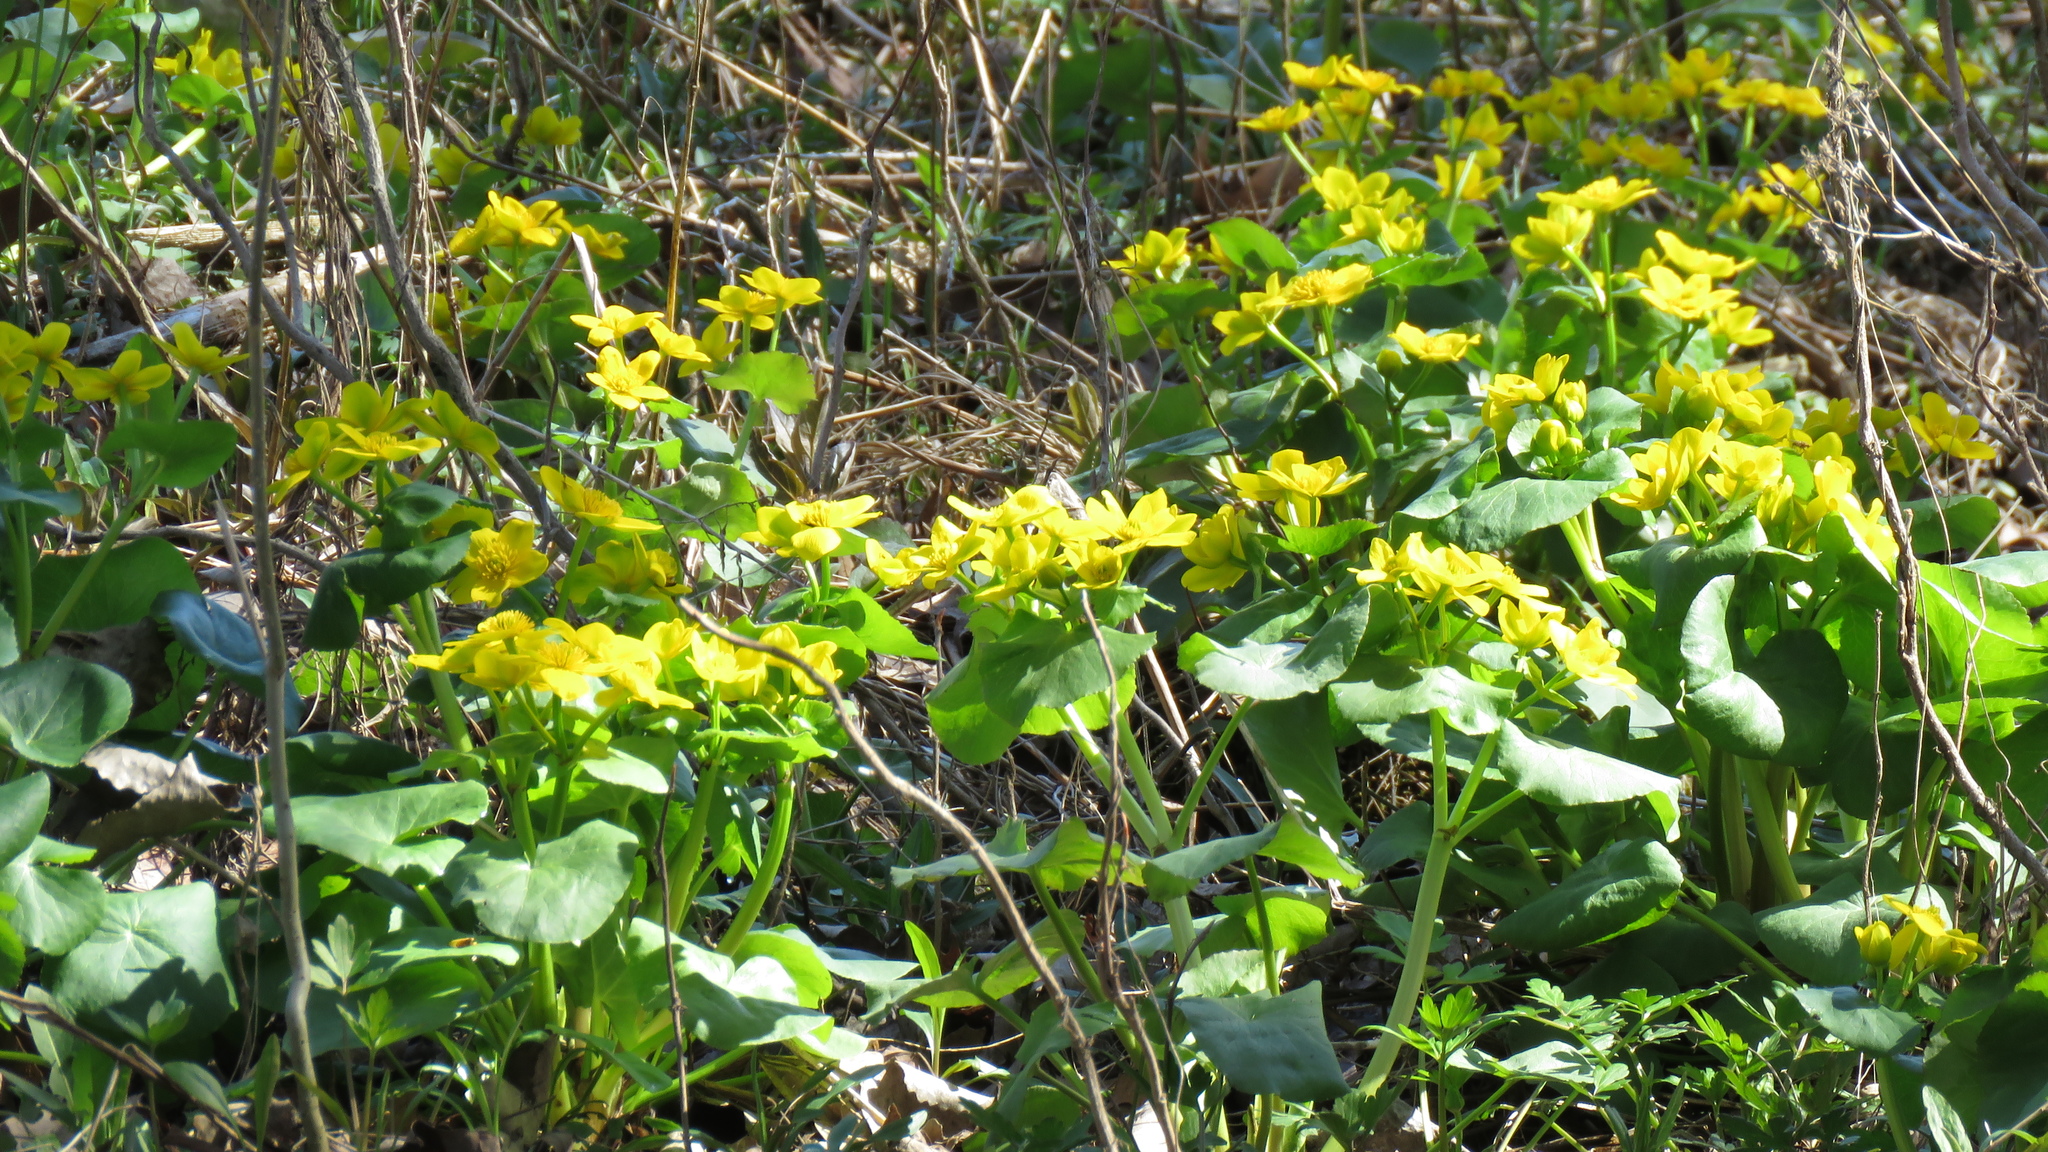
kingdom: Plantae
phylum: Tracheophyta
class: Magnoliopsida
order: Ranunculales
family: Ranunculaceae
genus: Caltha
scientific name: Caltha palustris
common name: Marsh marigold
